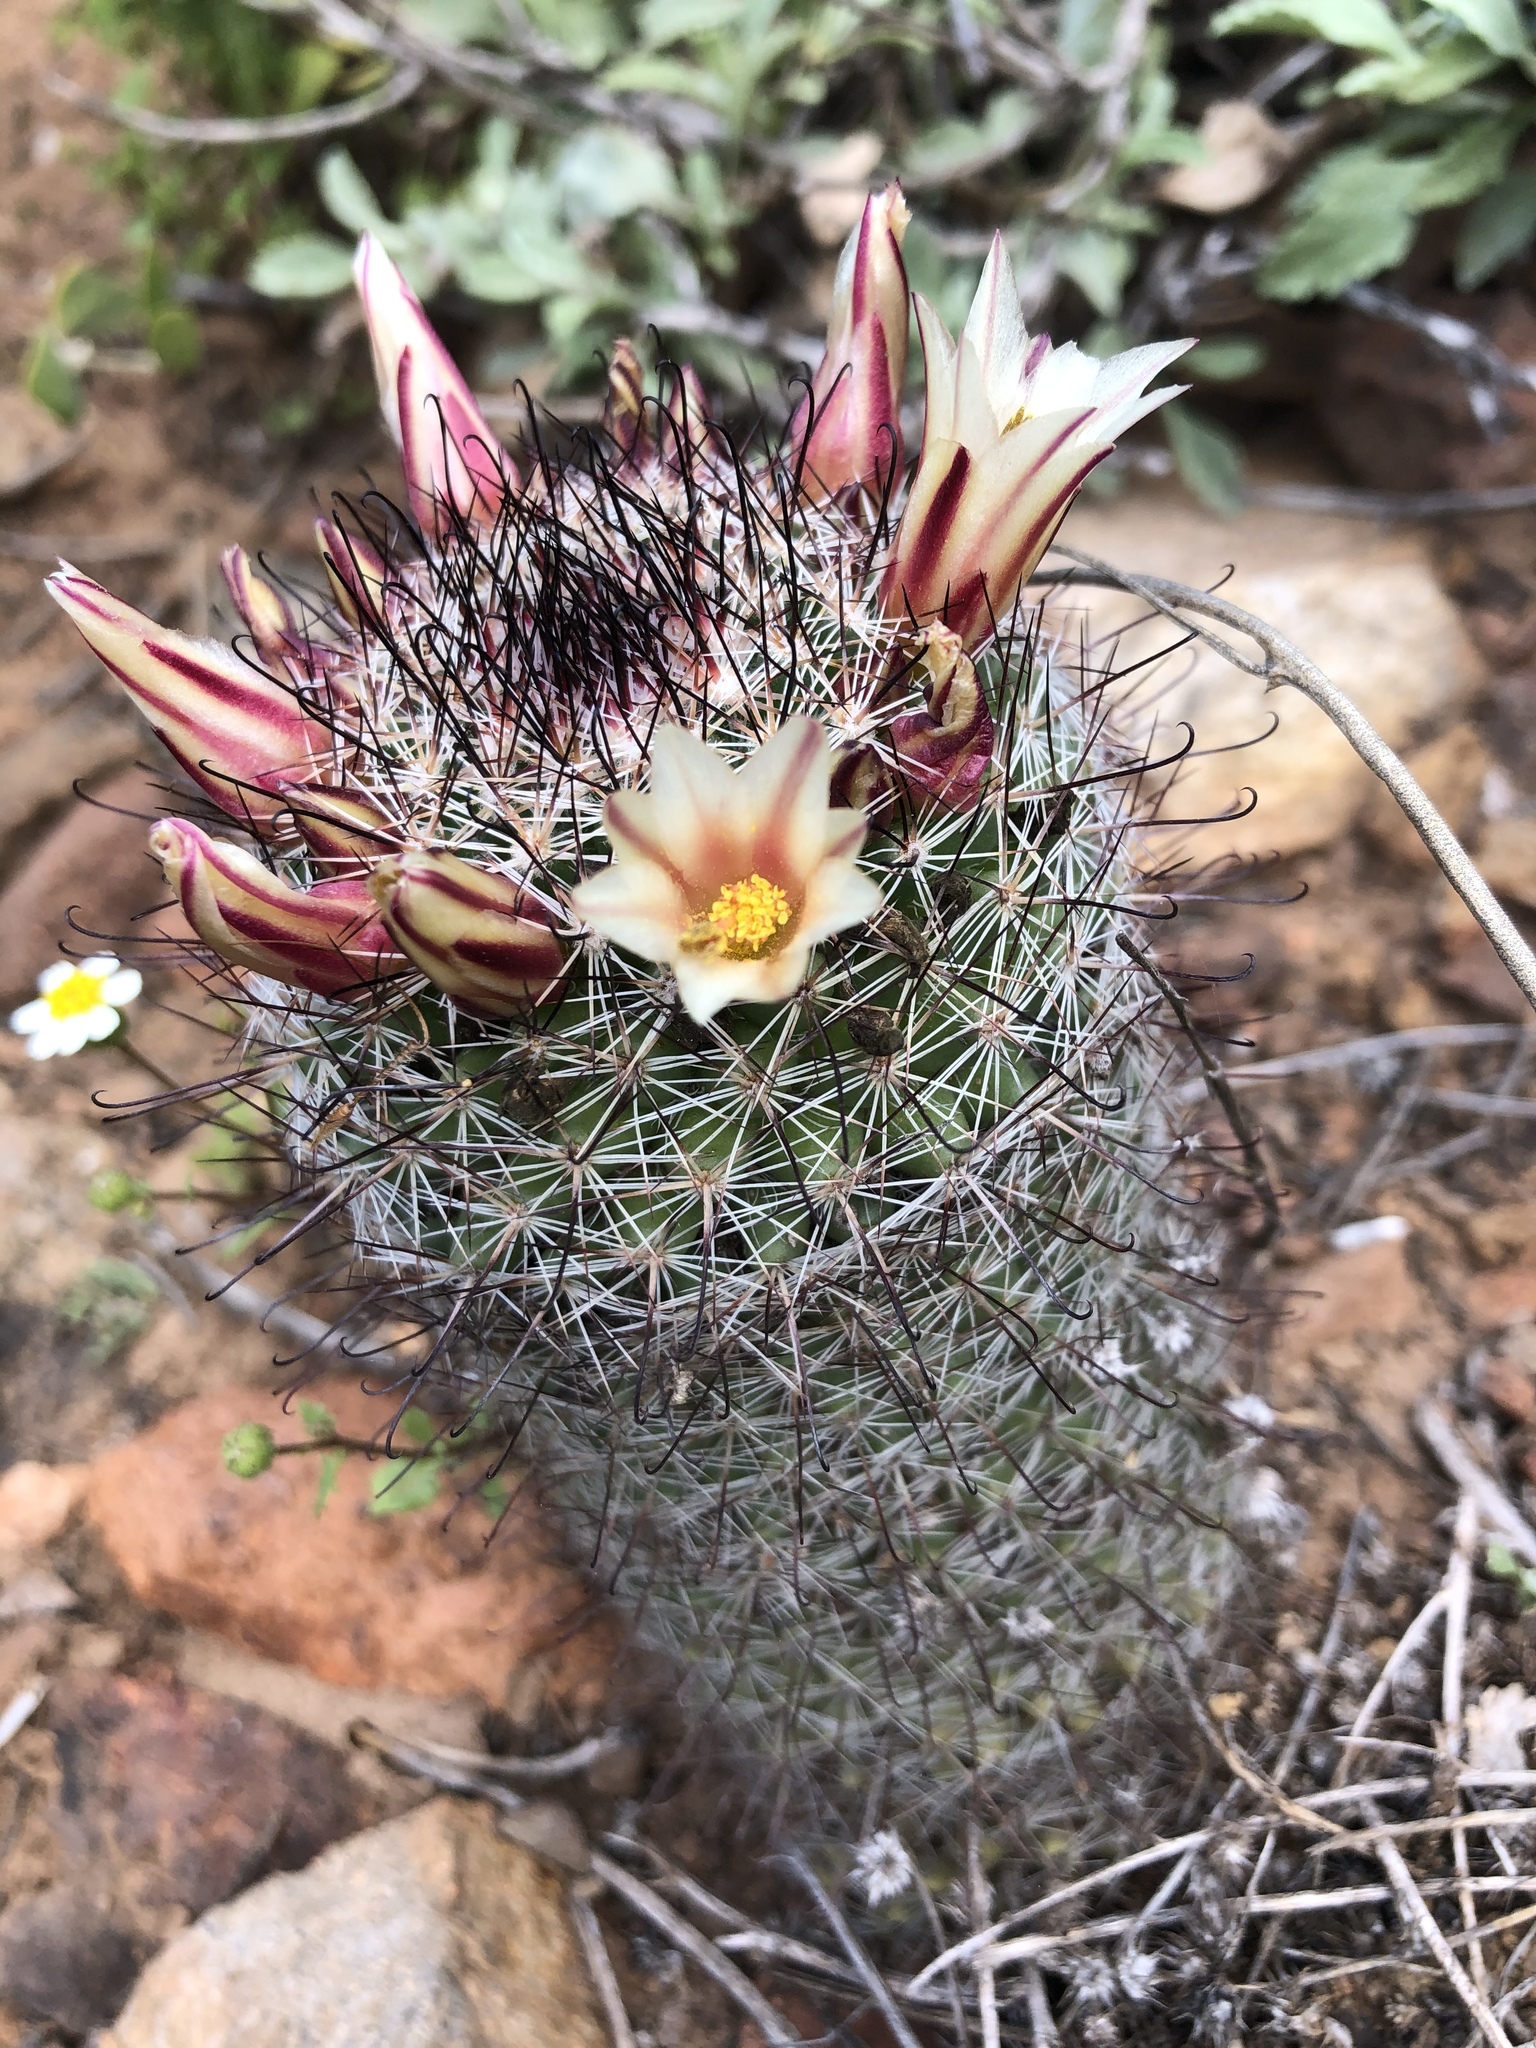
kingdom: Plantae
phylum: Tracheophyta
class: Magnoliopsida
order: Caryophyllales
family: Cactaceae
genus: Cochemiea
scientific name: Cochemiea dioica
